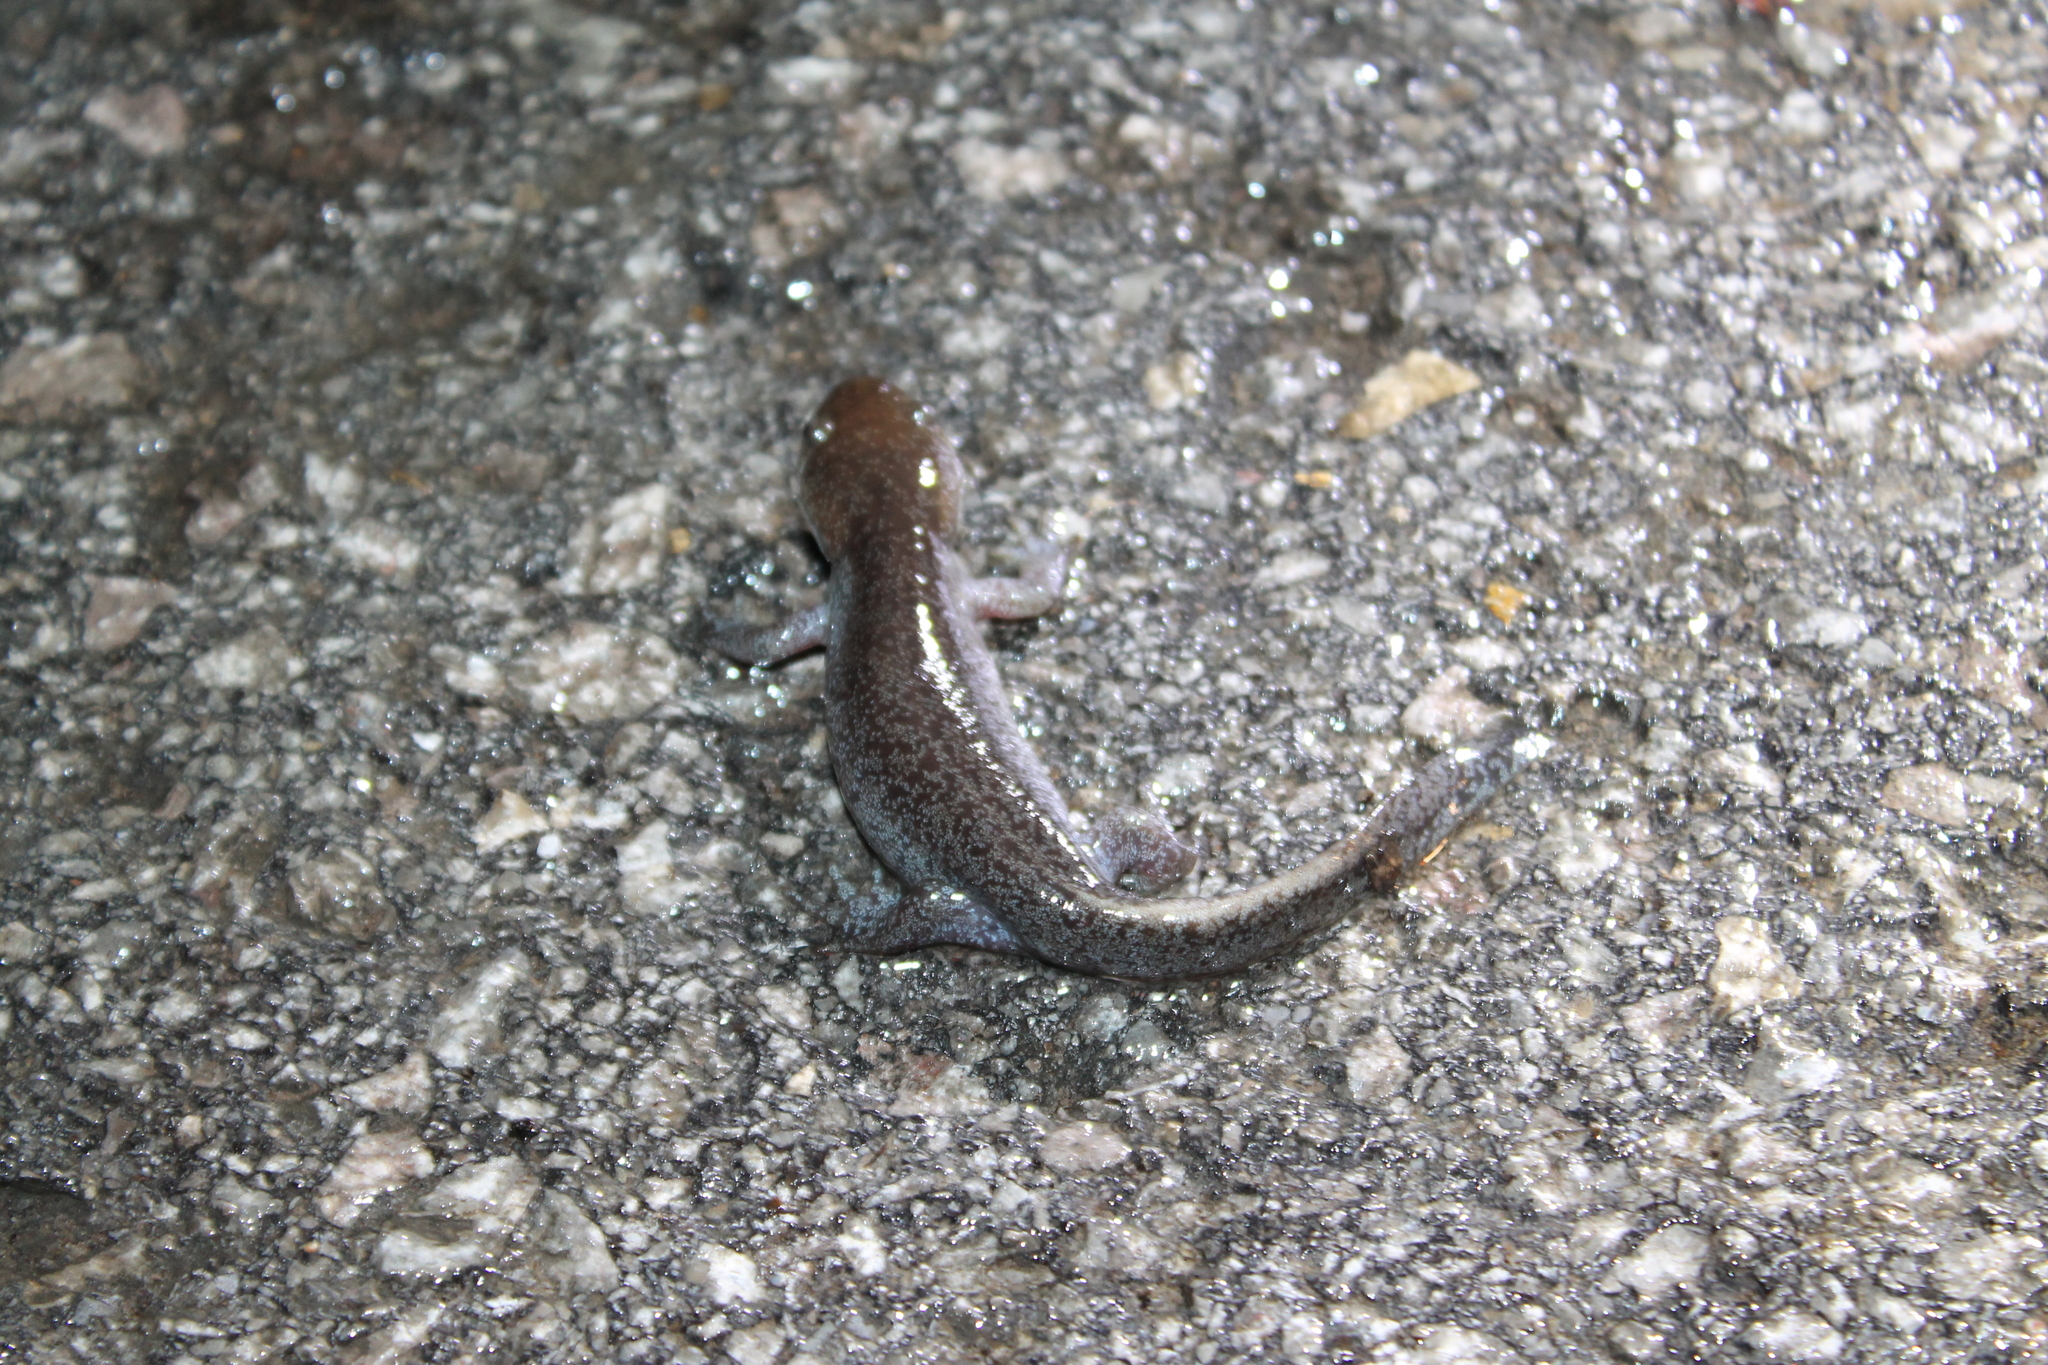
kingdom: Animalia
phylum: Chordata
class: Amphibia
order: Caudata
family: Ambystomatidae
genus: Ambystoma
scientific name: Ambystoma talpoideum
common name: Mole salamander
